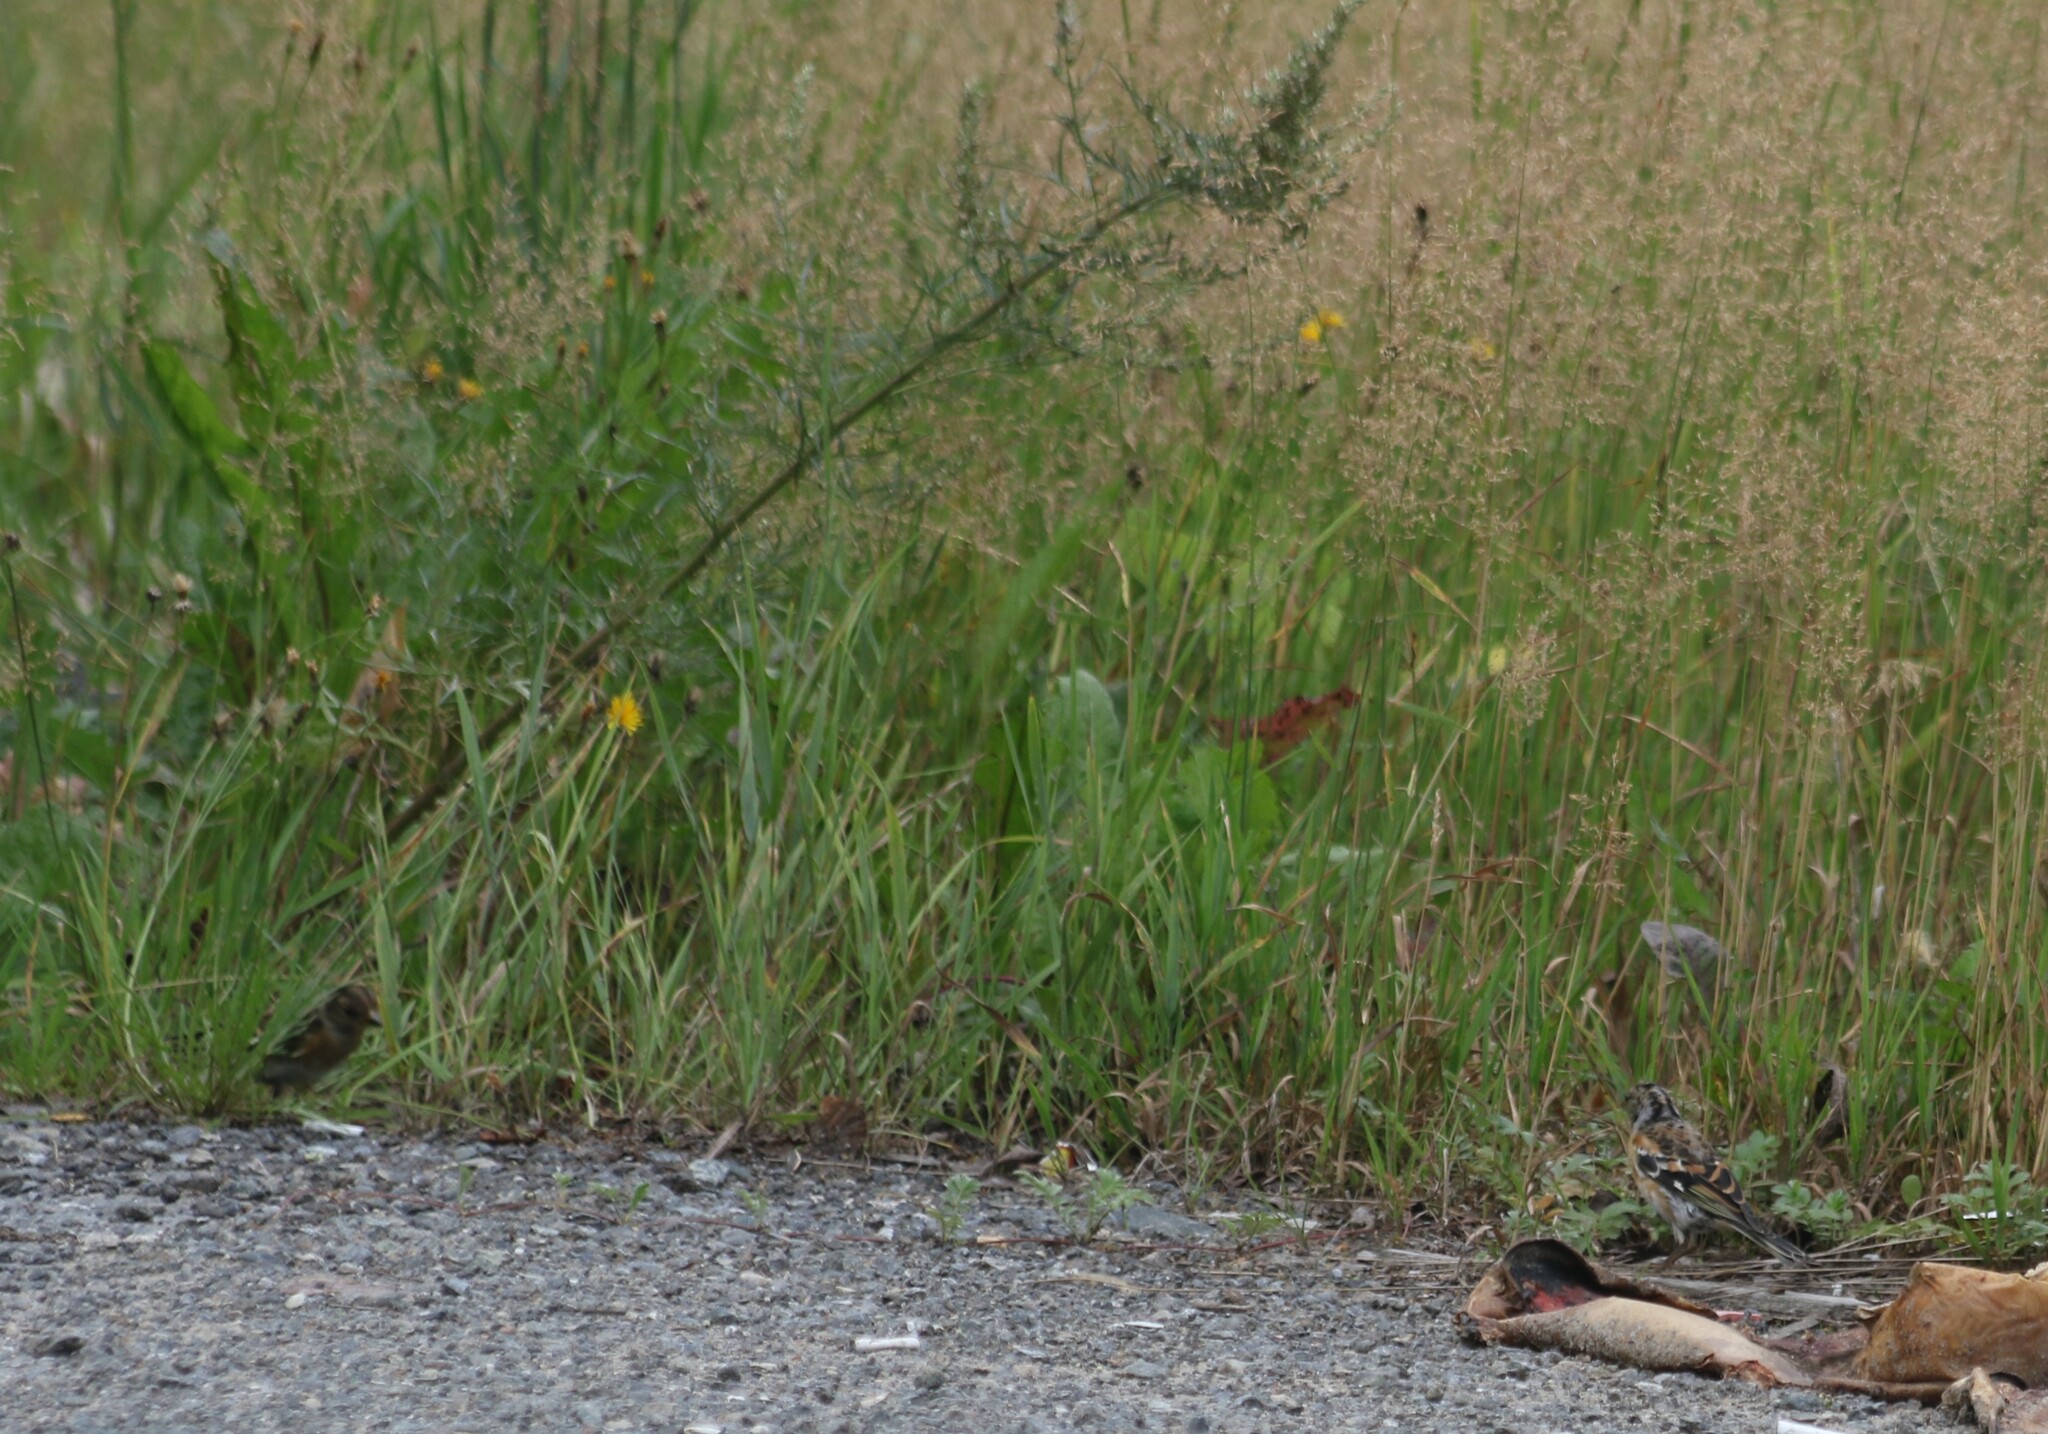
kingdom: Animalia
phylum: Chordata
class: Aves
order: Passeriformes
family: Fringillidae
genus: Fringilla
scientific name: Fringilla montifringilla
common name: Brambling
